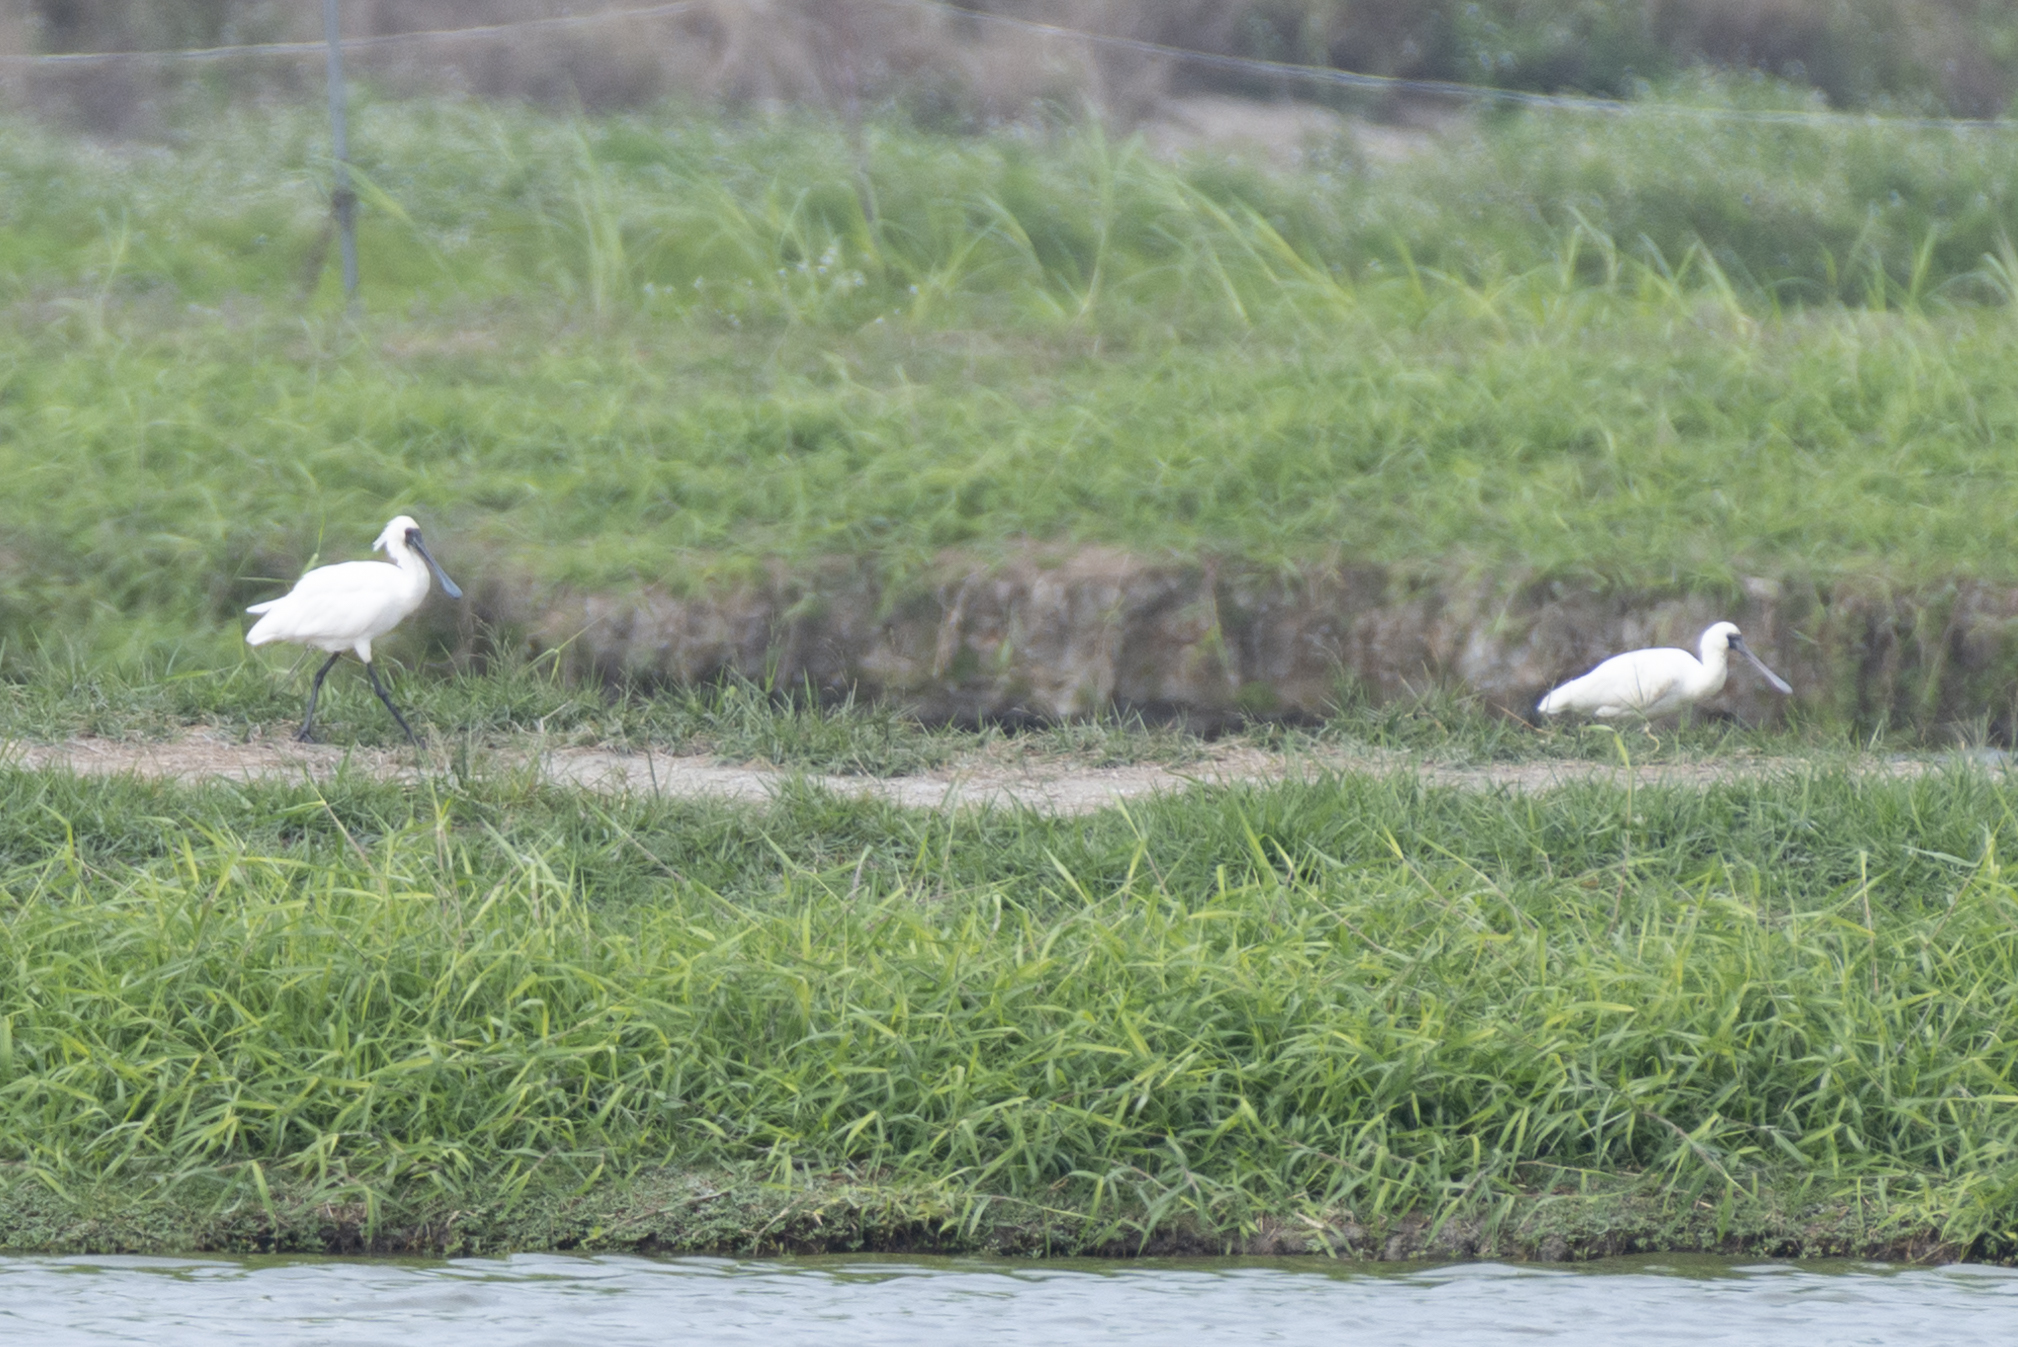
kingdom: Animalia
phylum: Chordata
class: Aves
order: Pelecaniformes
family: Threskiornithidae
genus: Platalea
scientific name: Platalea minor
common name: Black-faced spoonbill
